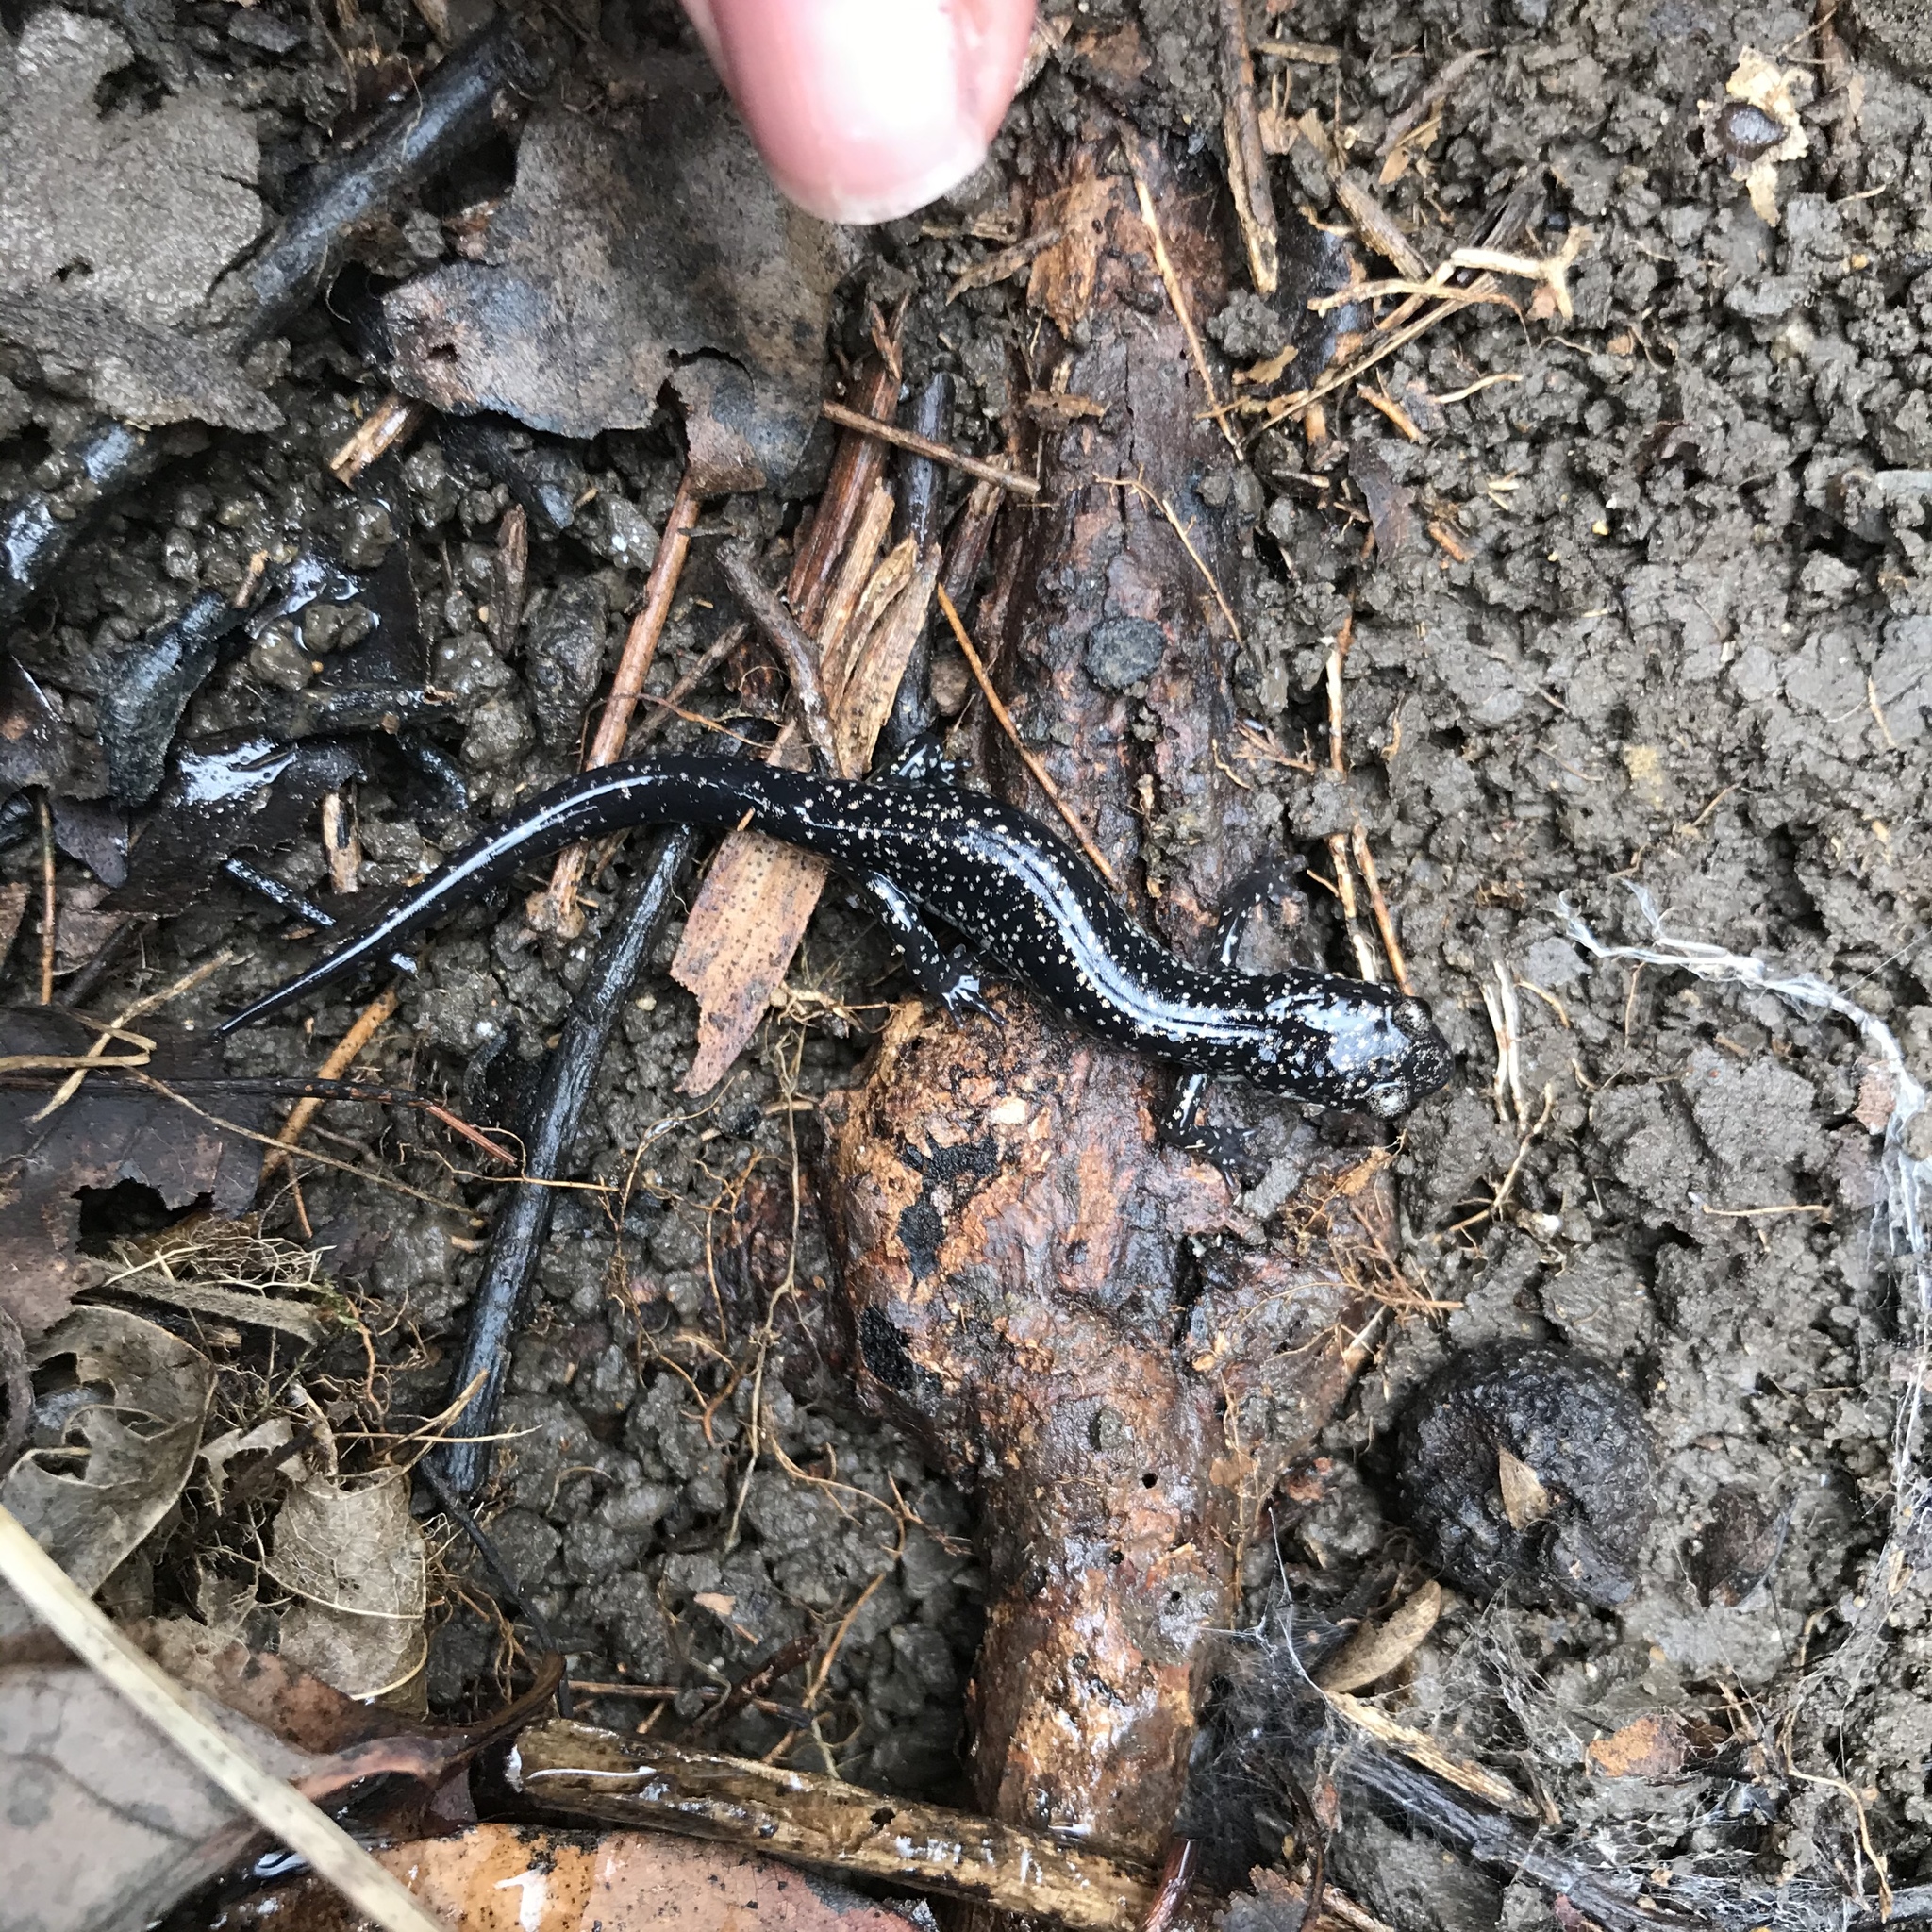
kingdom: Animalia
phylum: Chordata
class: Amphibia
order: Caudata
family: Plethodontidae
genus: Plethodon
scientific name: Plethodon glutinosus
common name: Northern slimy salamander
